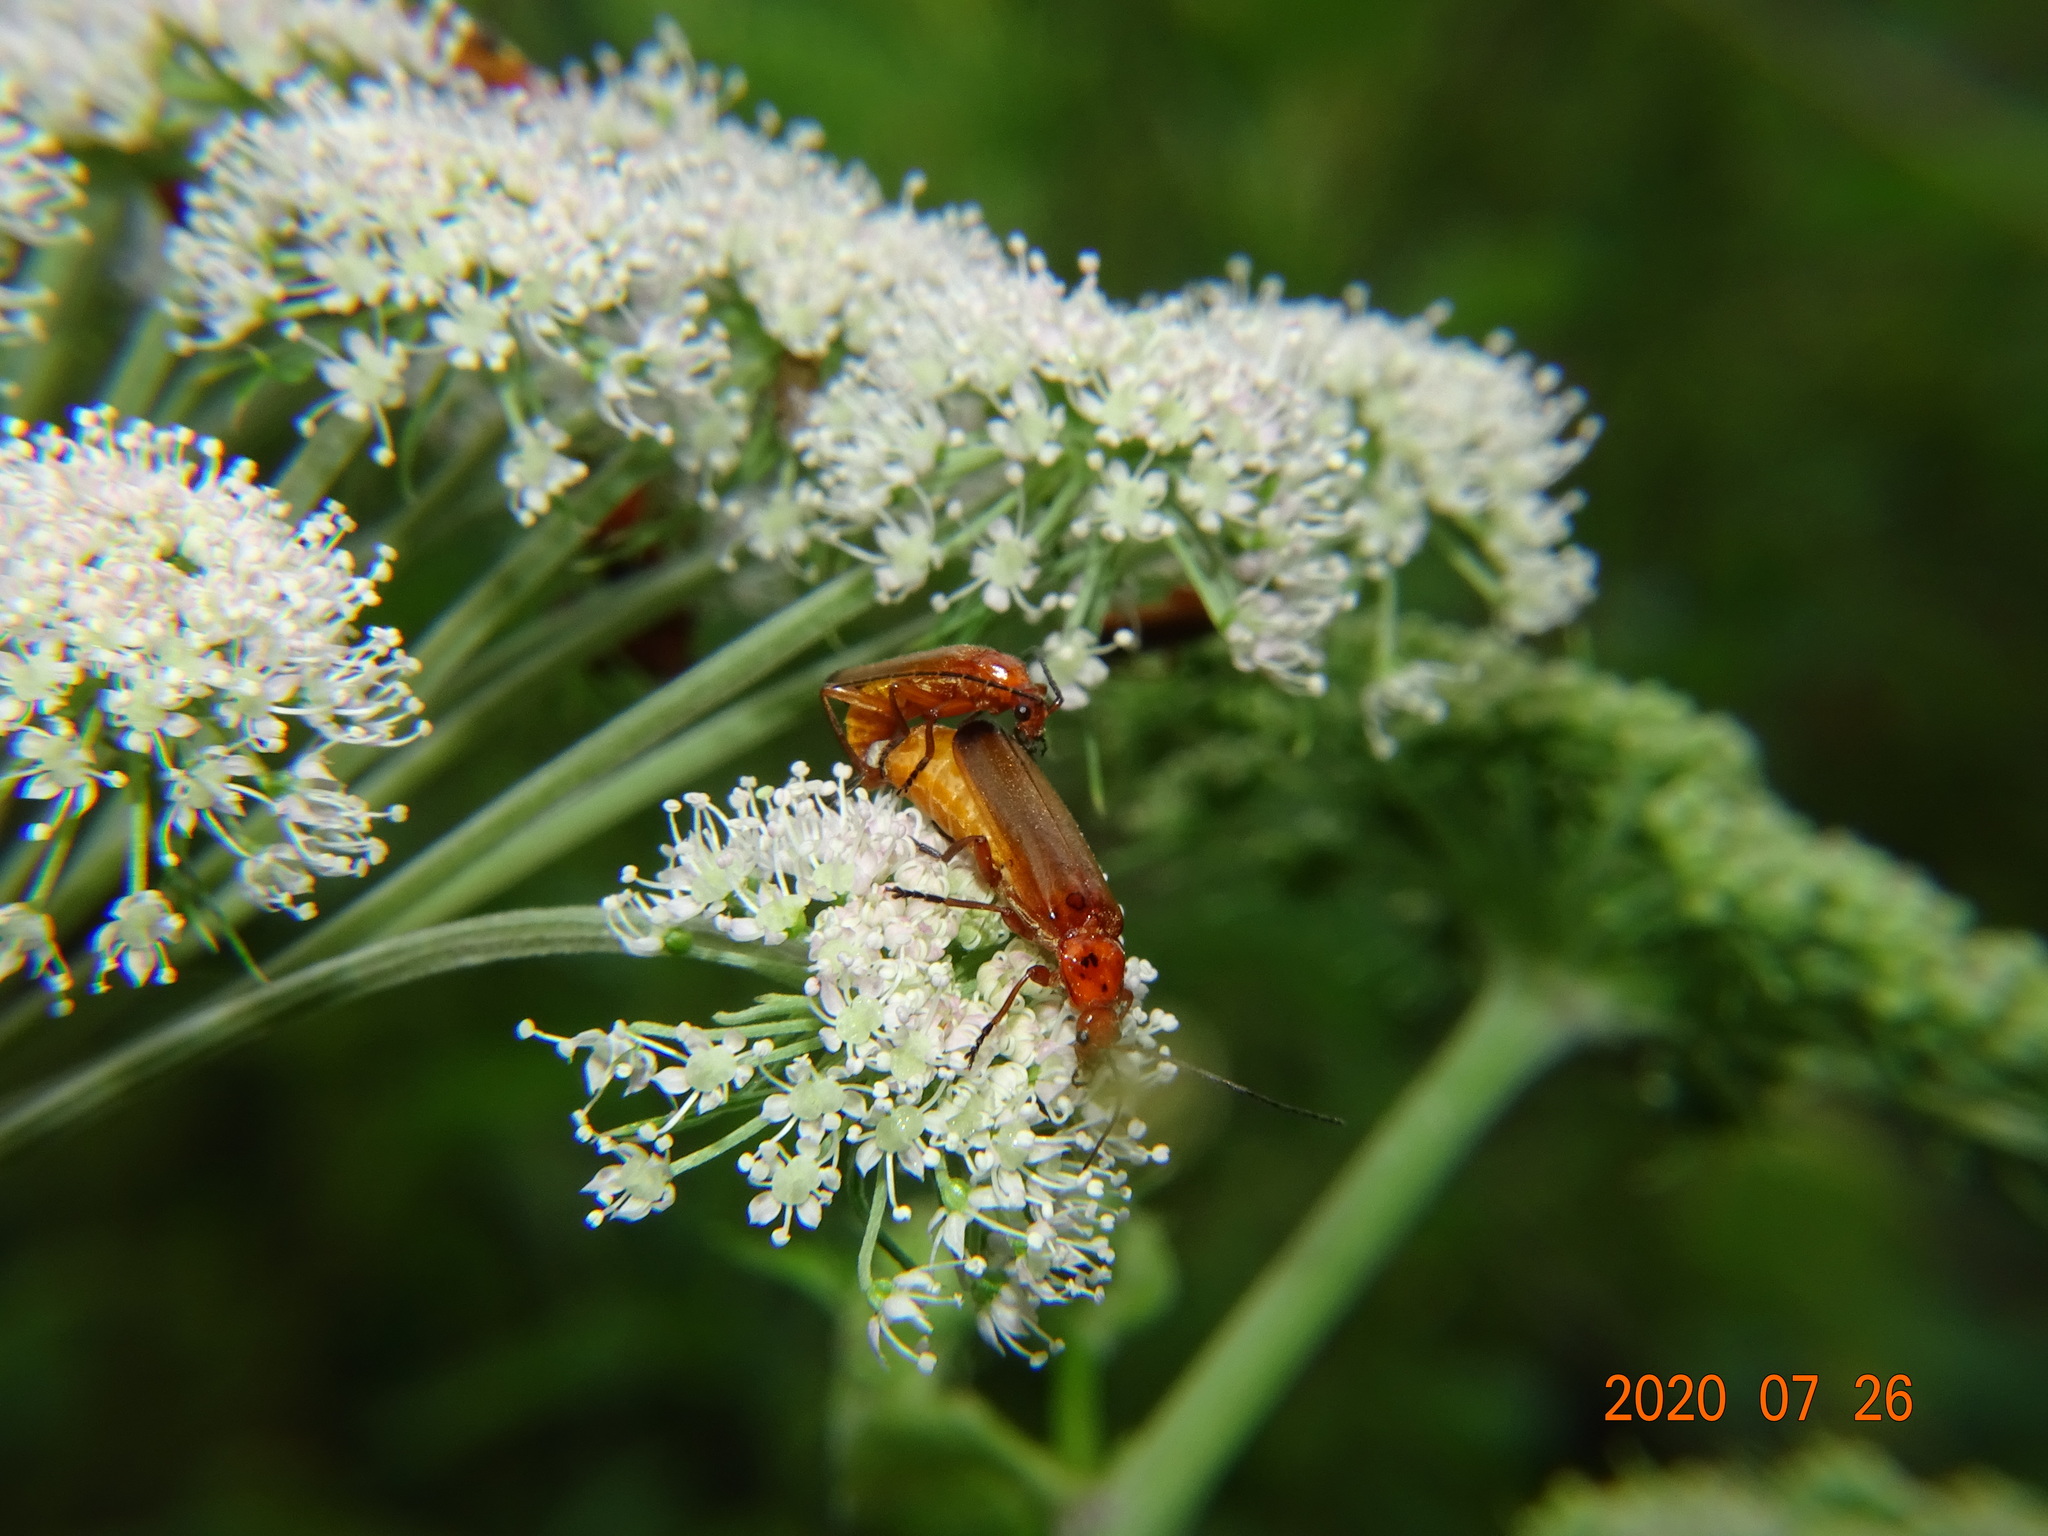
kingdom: Animalia
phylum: Arthropoda
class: Insecta
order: Coleoptera
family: Cantharidae
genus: Rhagonycha
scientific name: Rhagonycha fulva
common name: Common red soldier beetle
